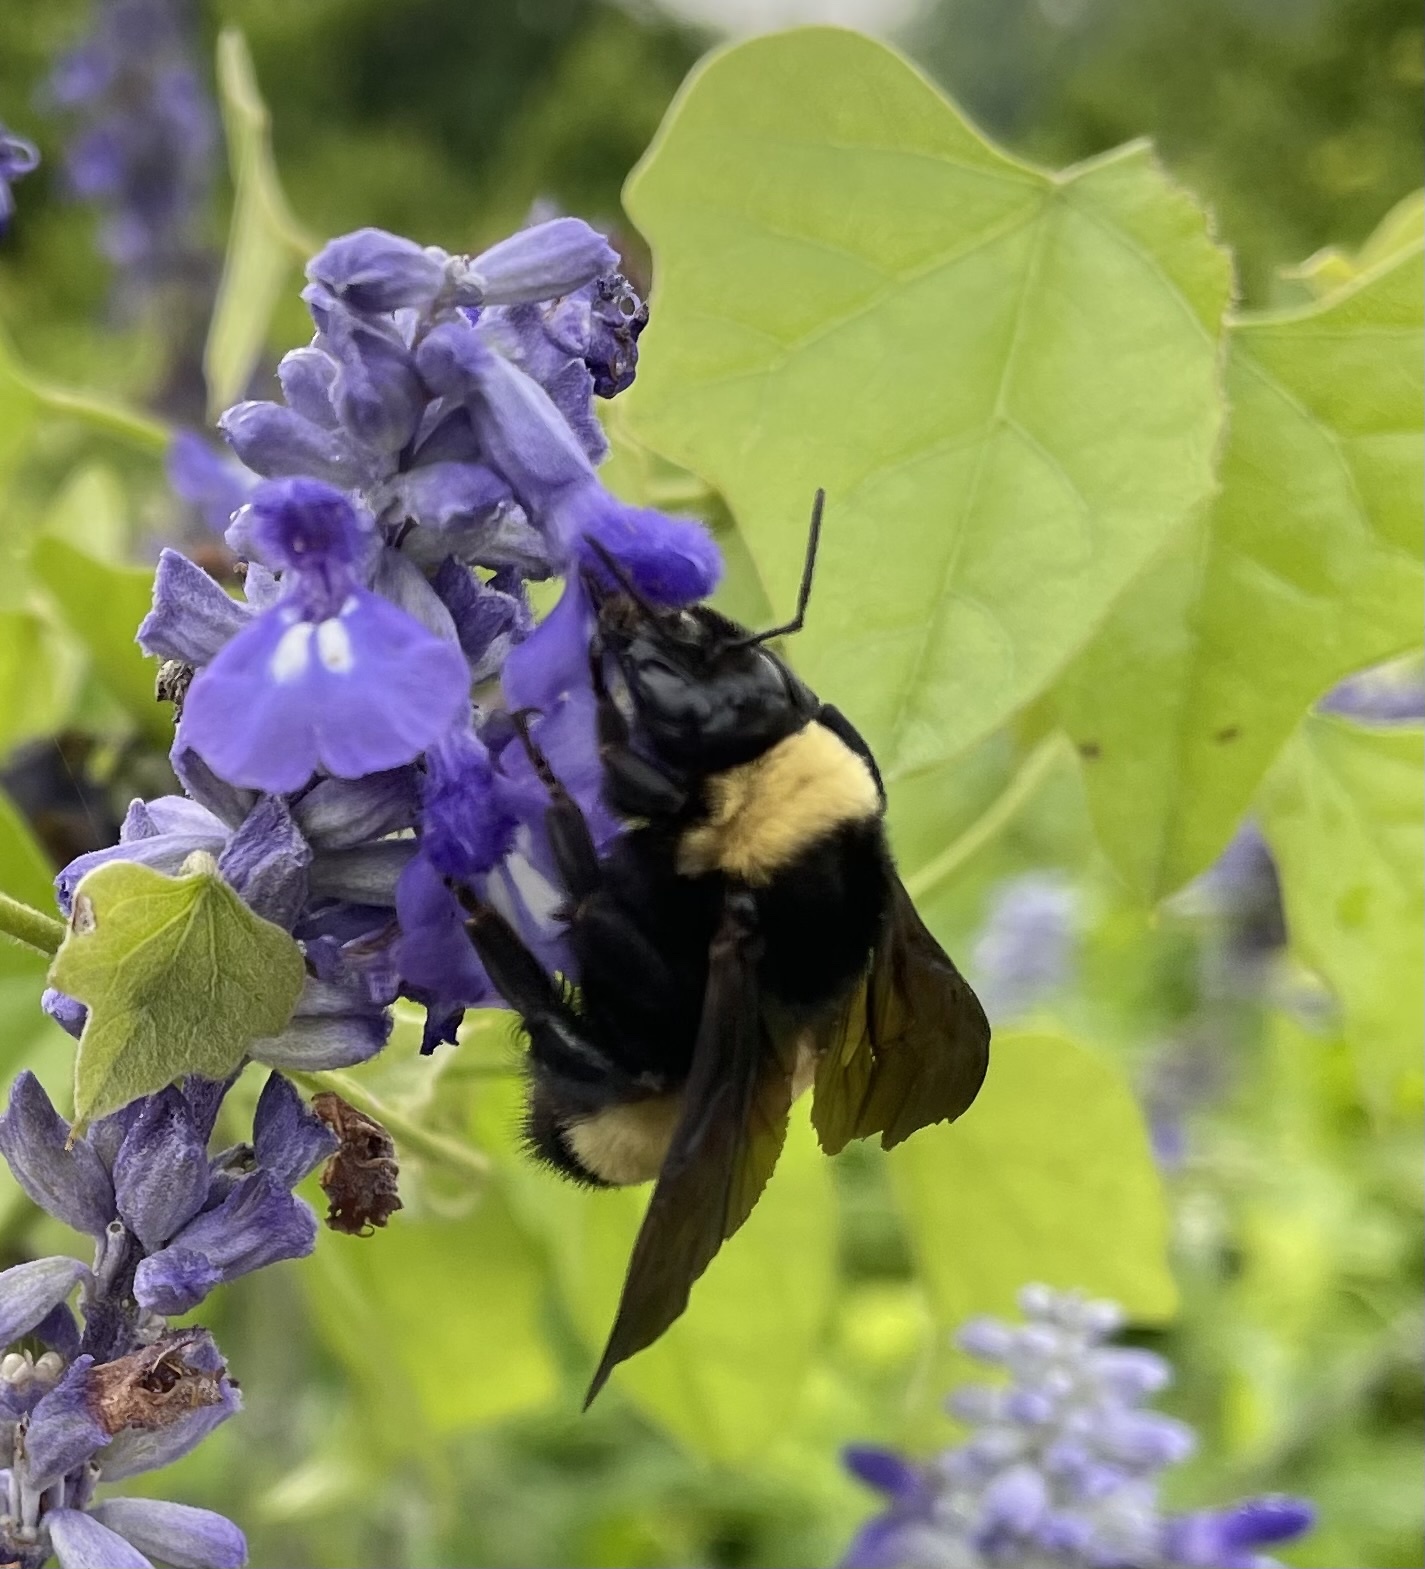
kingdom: Animalia
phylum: Arthropoda
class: Insecta
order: Hymenoptera
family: Apidae
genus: Bombus
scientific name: Bombus pensylvanicus
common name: Bumble bee
